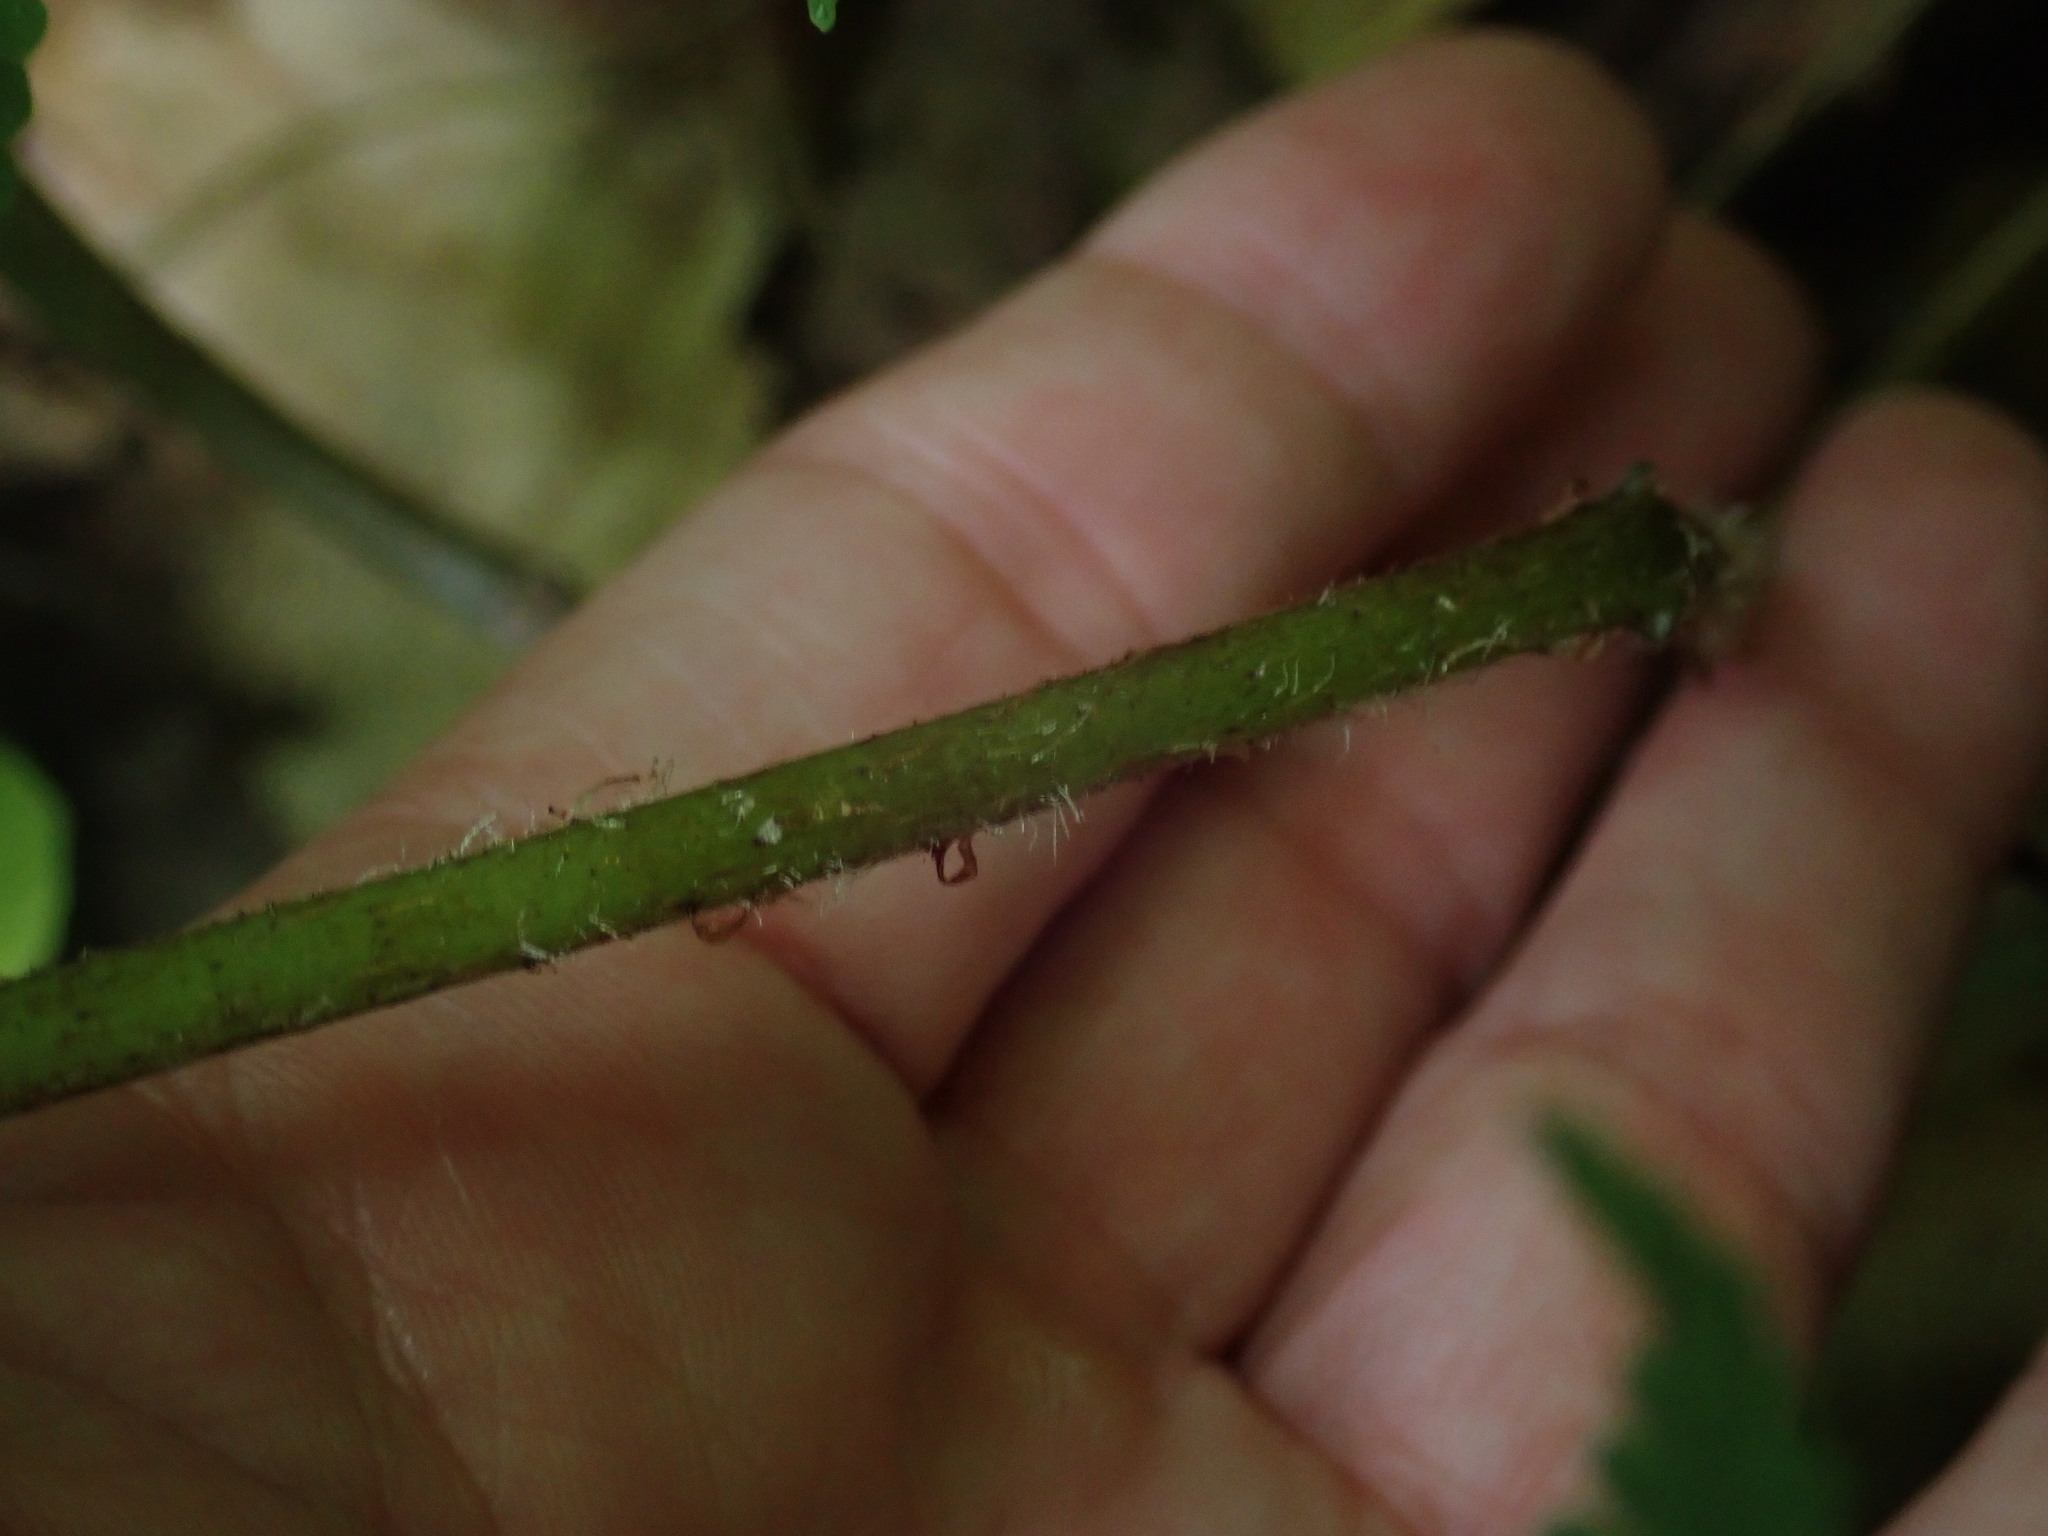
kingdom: Plantae
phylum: Tracheophyta
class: Polypodiopsida
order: Polypodiales
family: Athyriaceae
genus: Deparia
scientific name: Deparia acrostichoides
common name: Silver false spleenwort
